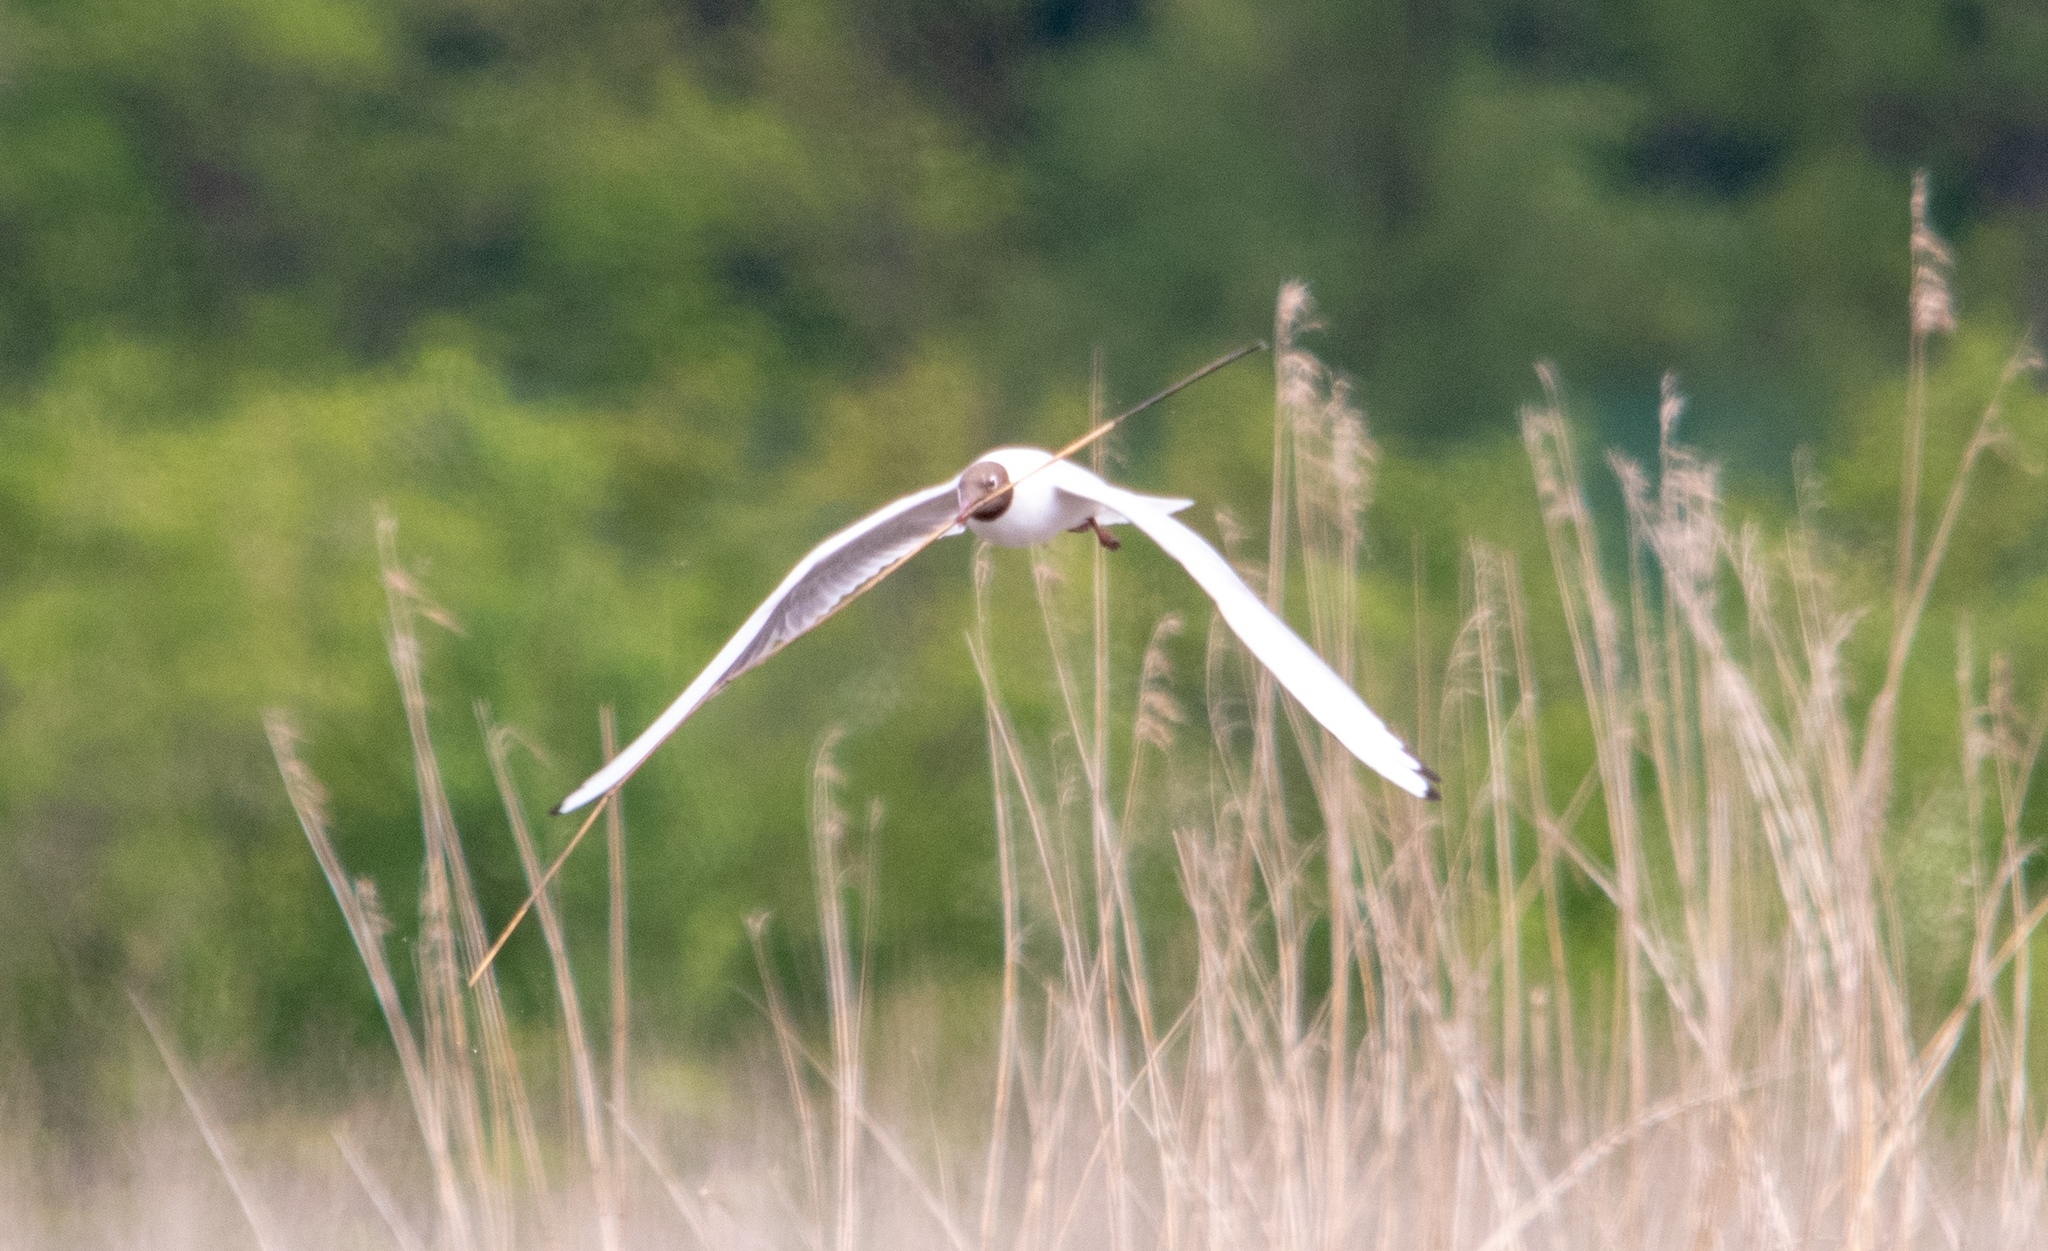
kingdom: Animalia
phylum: Chordata
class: Aves
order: Charadriiformes
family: Laridae
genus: Chroicocephalus
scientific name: Chroicocephalus ridibundus
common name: Black-headed gull
